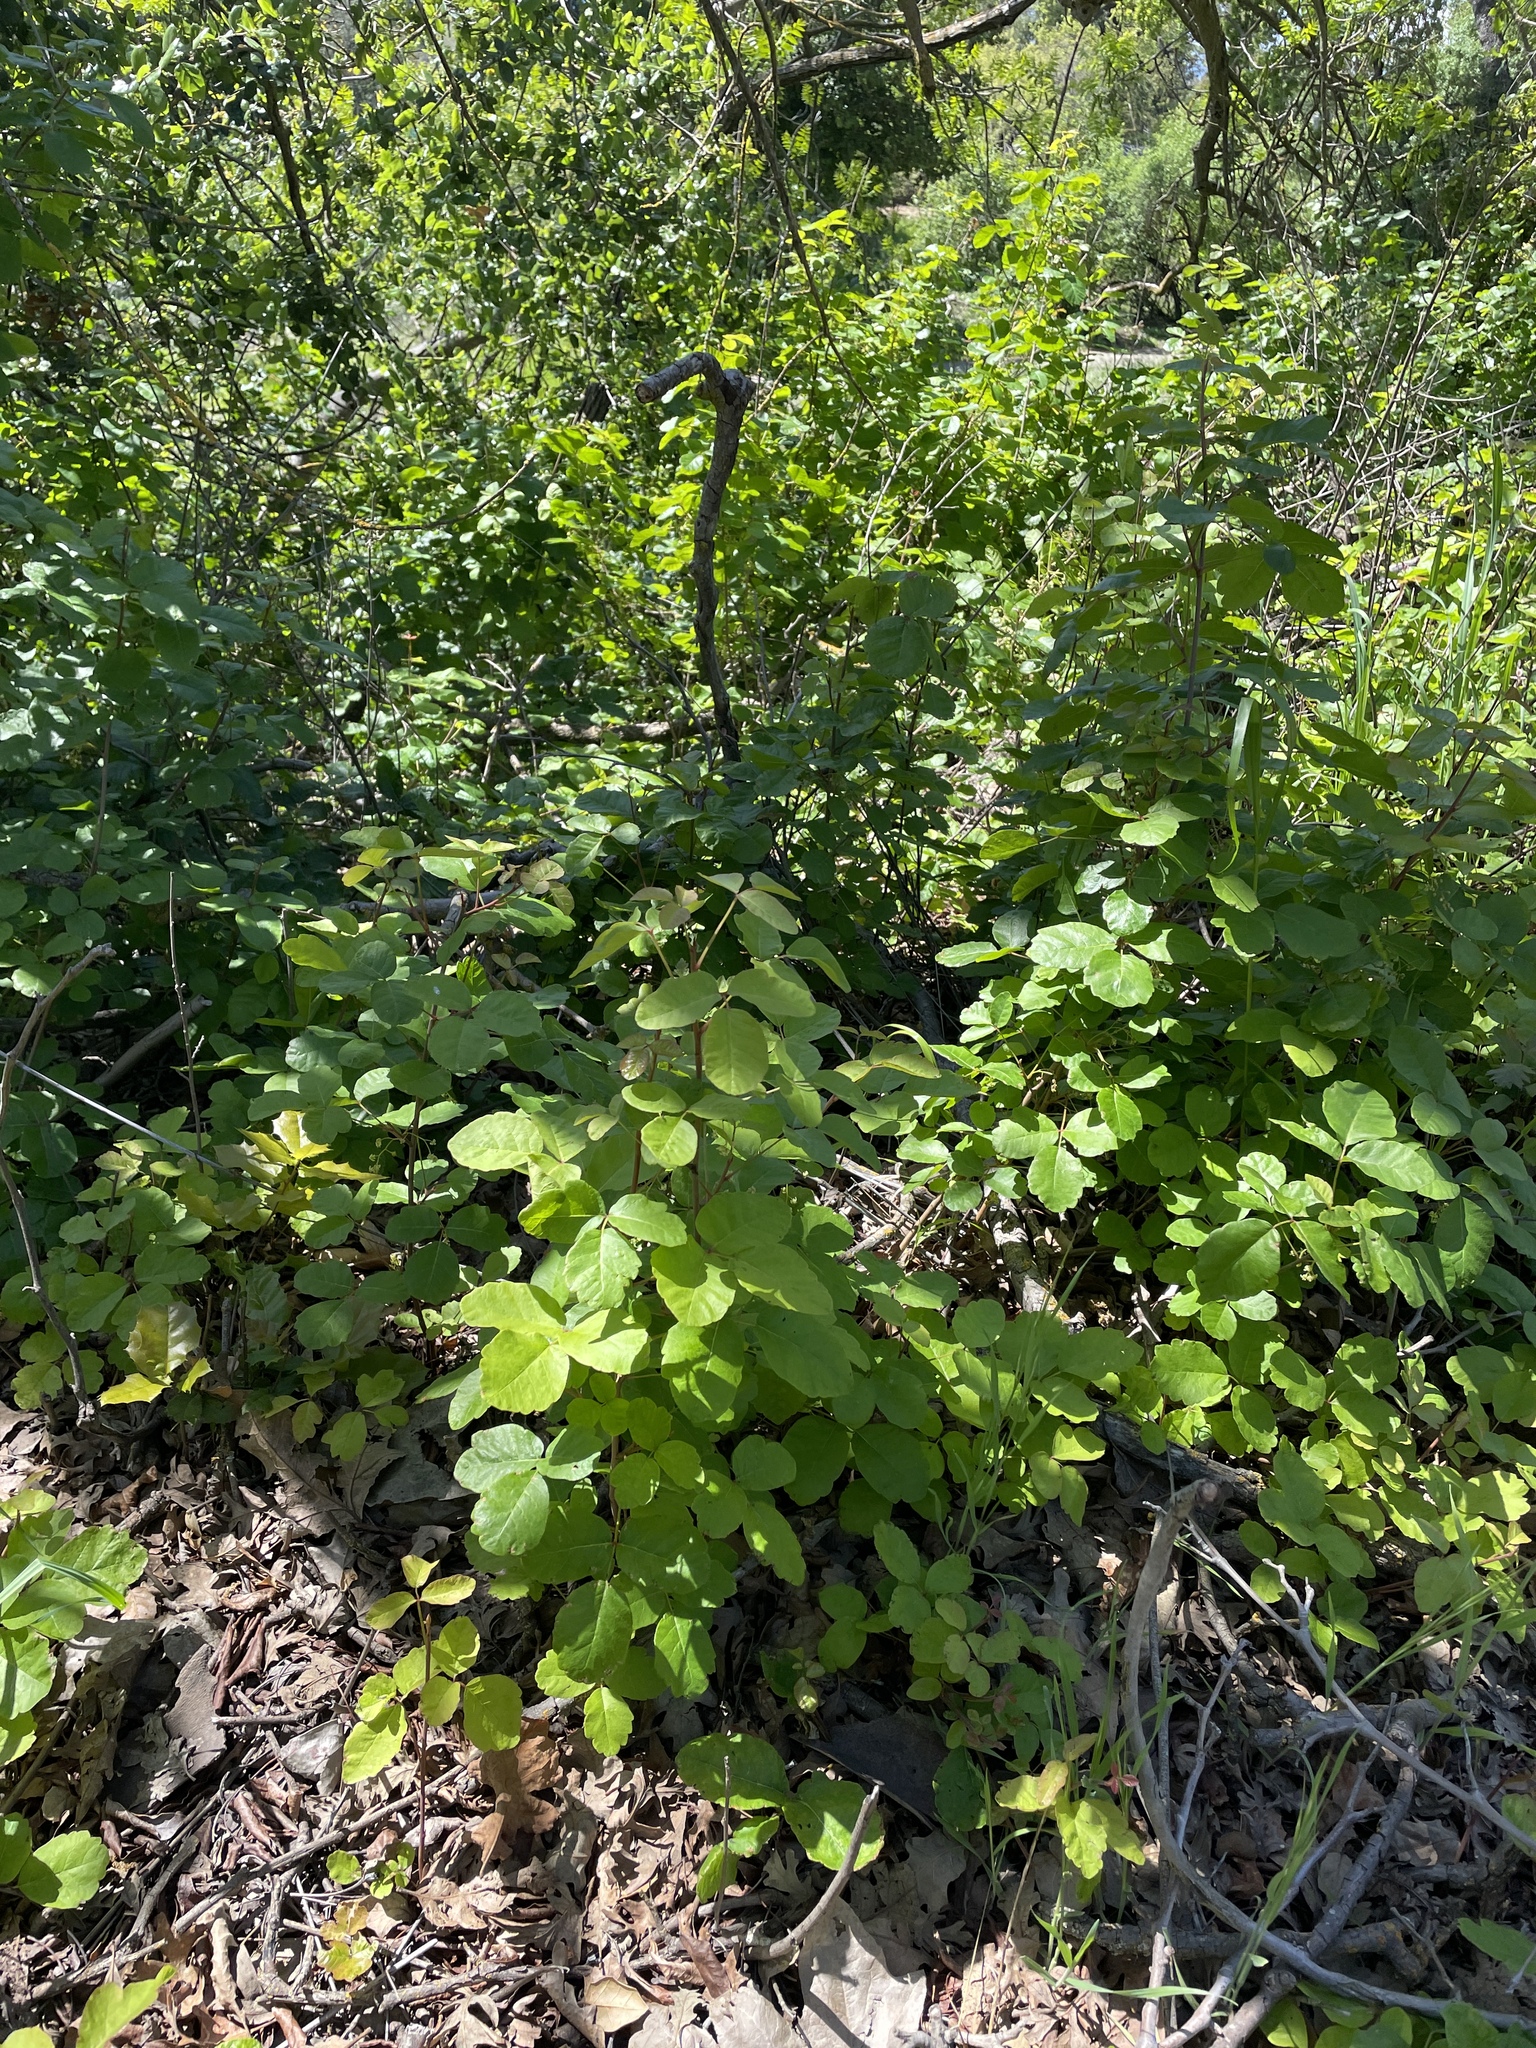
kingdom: Plantae
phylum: Tracheophyta
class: Magnoliopsida
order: Sapindales
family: Anacardiaceae
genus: Toxicodendron
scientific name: Toxicodendron diversilobum
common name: Pacific poison-oak
